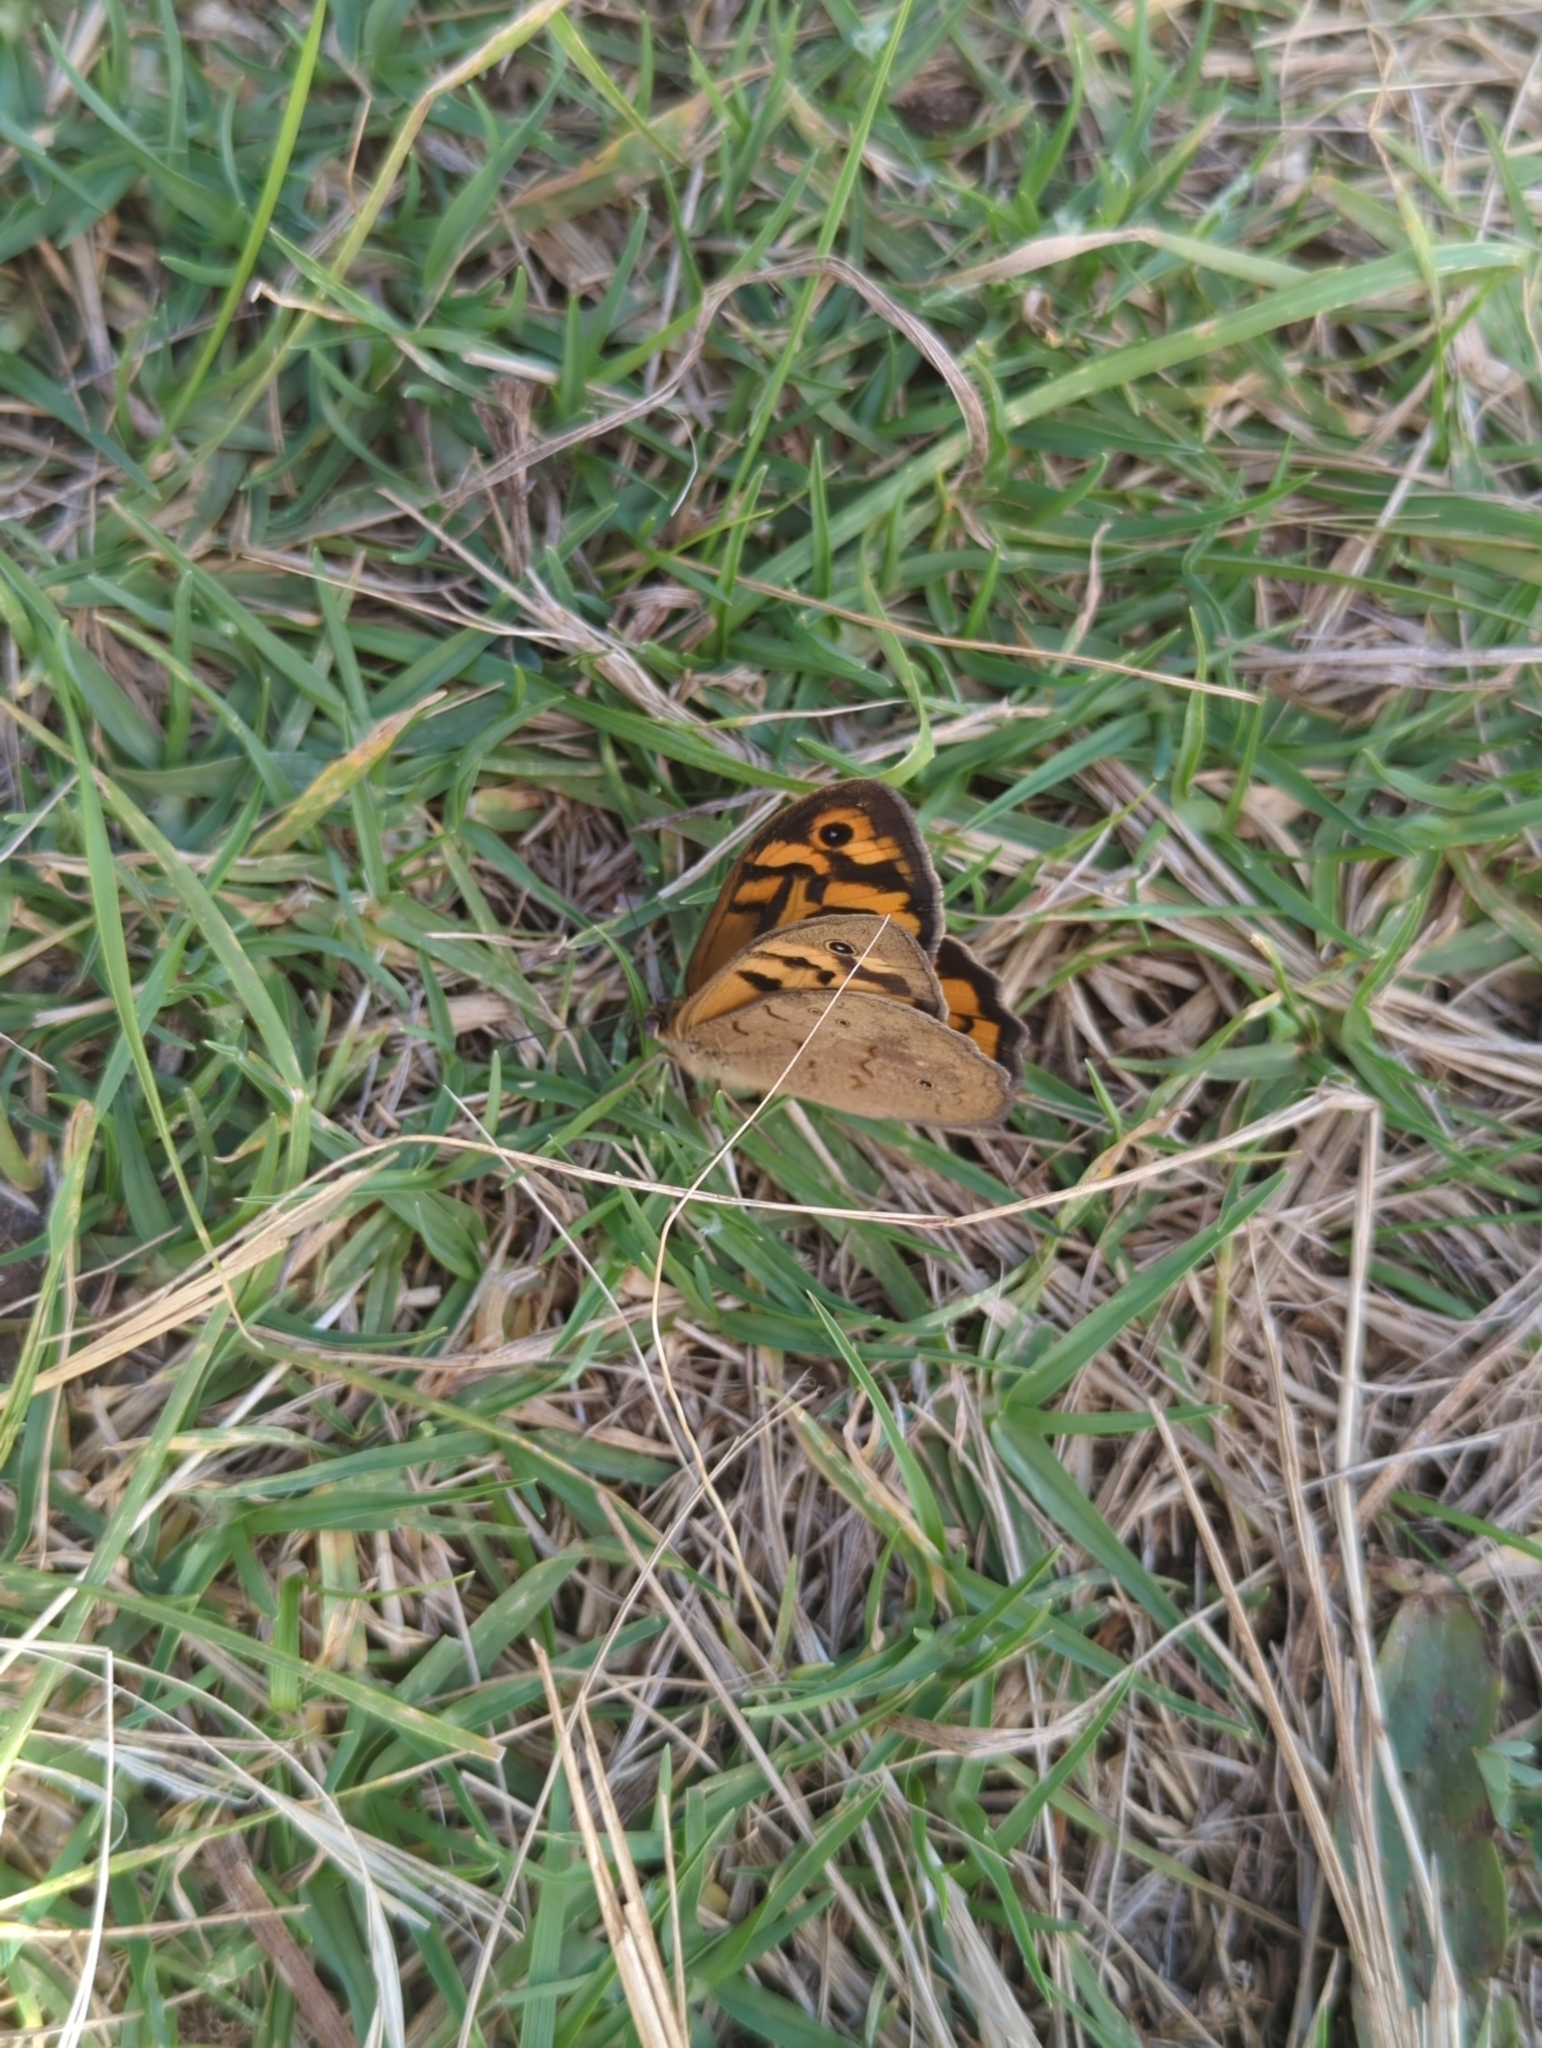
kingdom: Animalia
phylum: Arthropoda
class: Insecta
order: Lepidoptera
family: Nymphalidae
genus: Heteronympha
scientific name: Heteronympha merope
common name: Common brown
